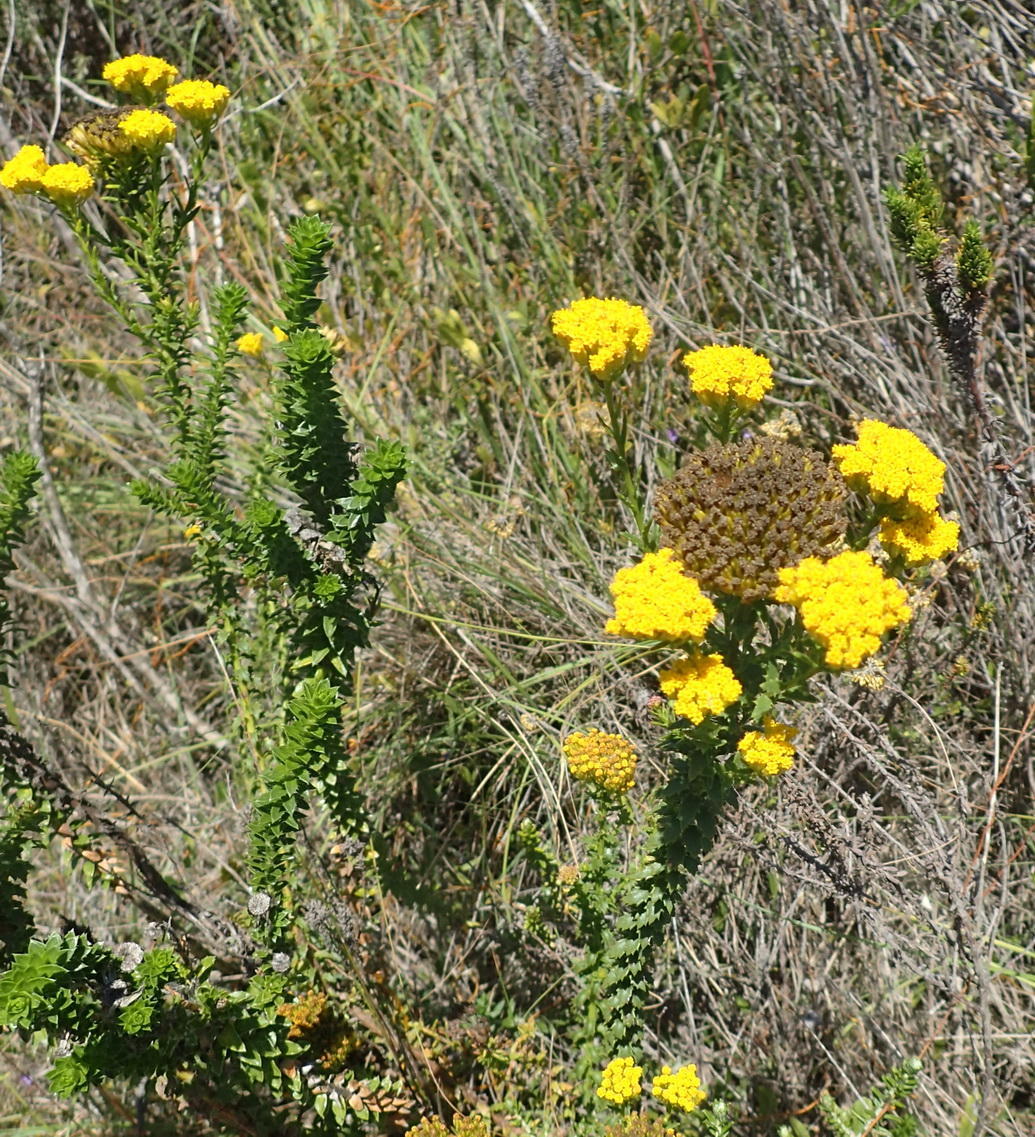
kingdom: Plantae
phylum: Tracheophyta
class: Magnoliopsida
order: Asterales
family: Asteraceae
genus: Athanasia
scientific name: Athanasia dentata
